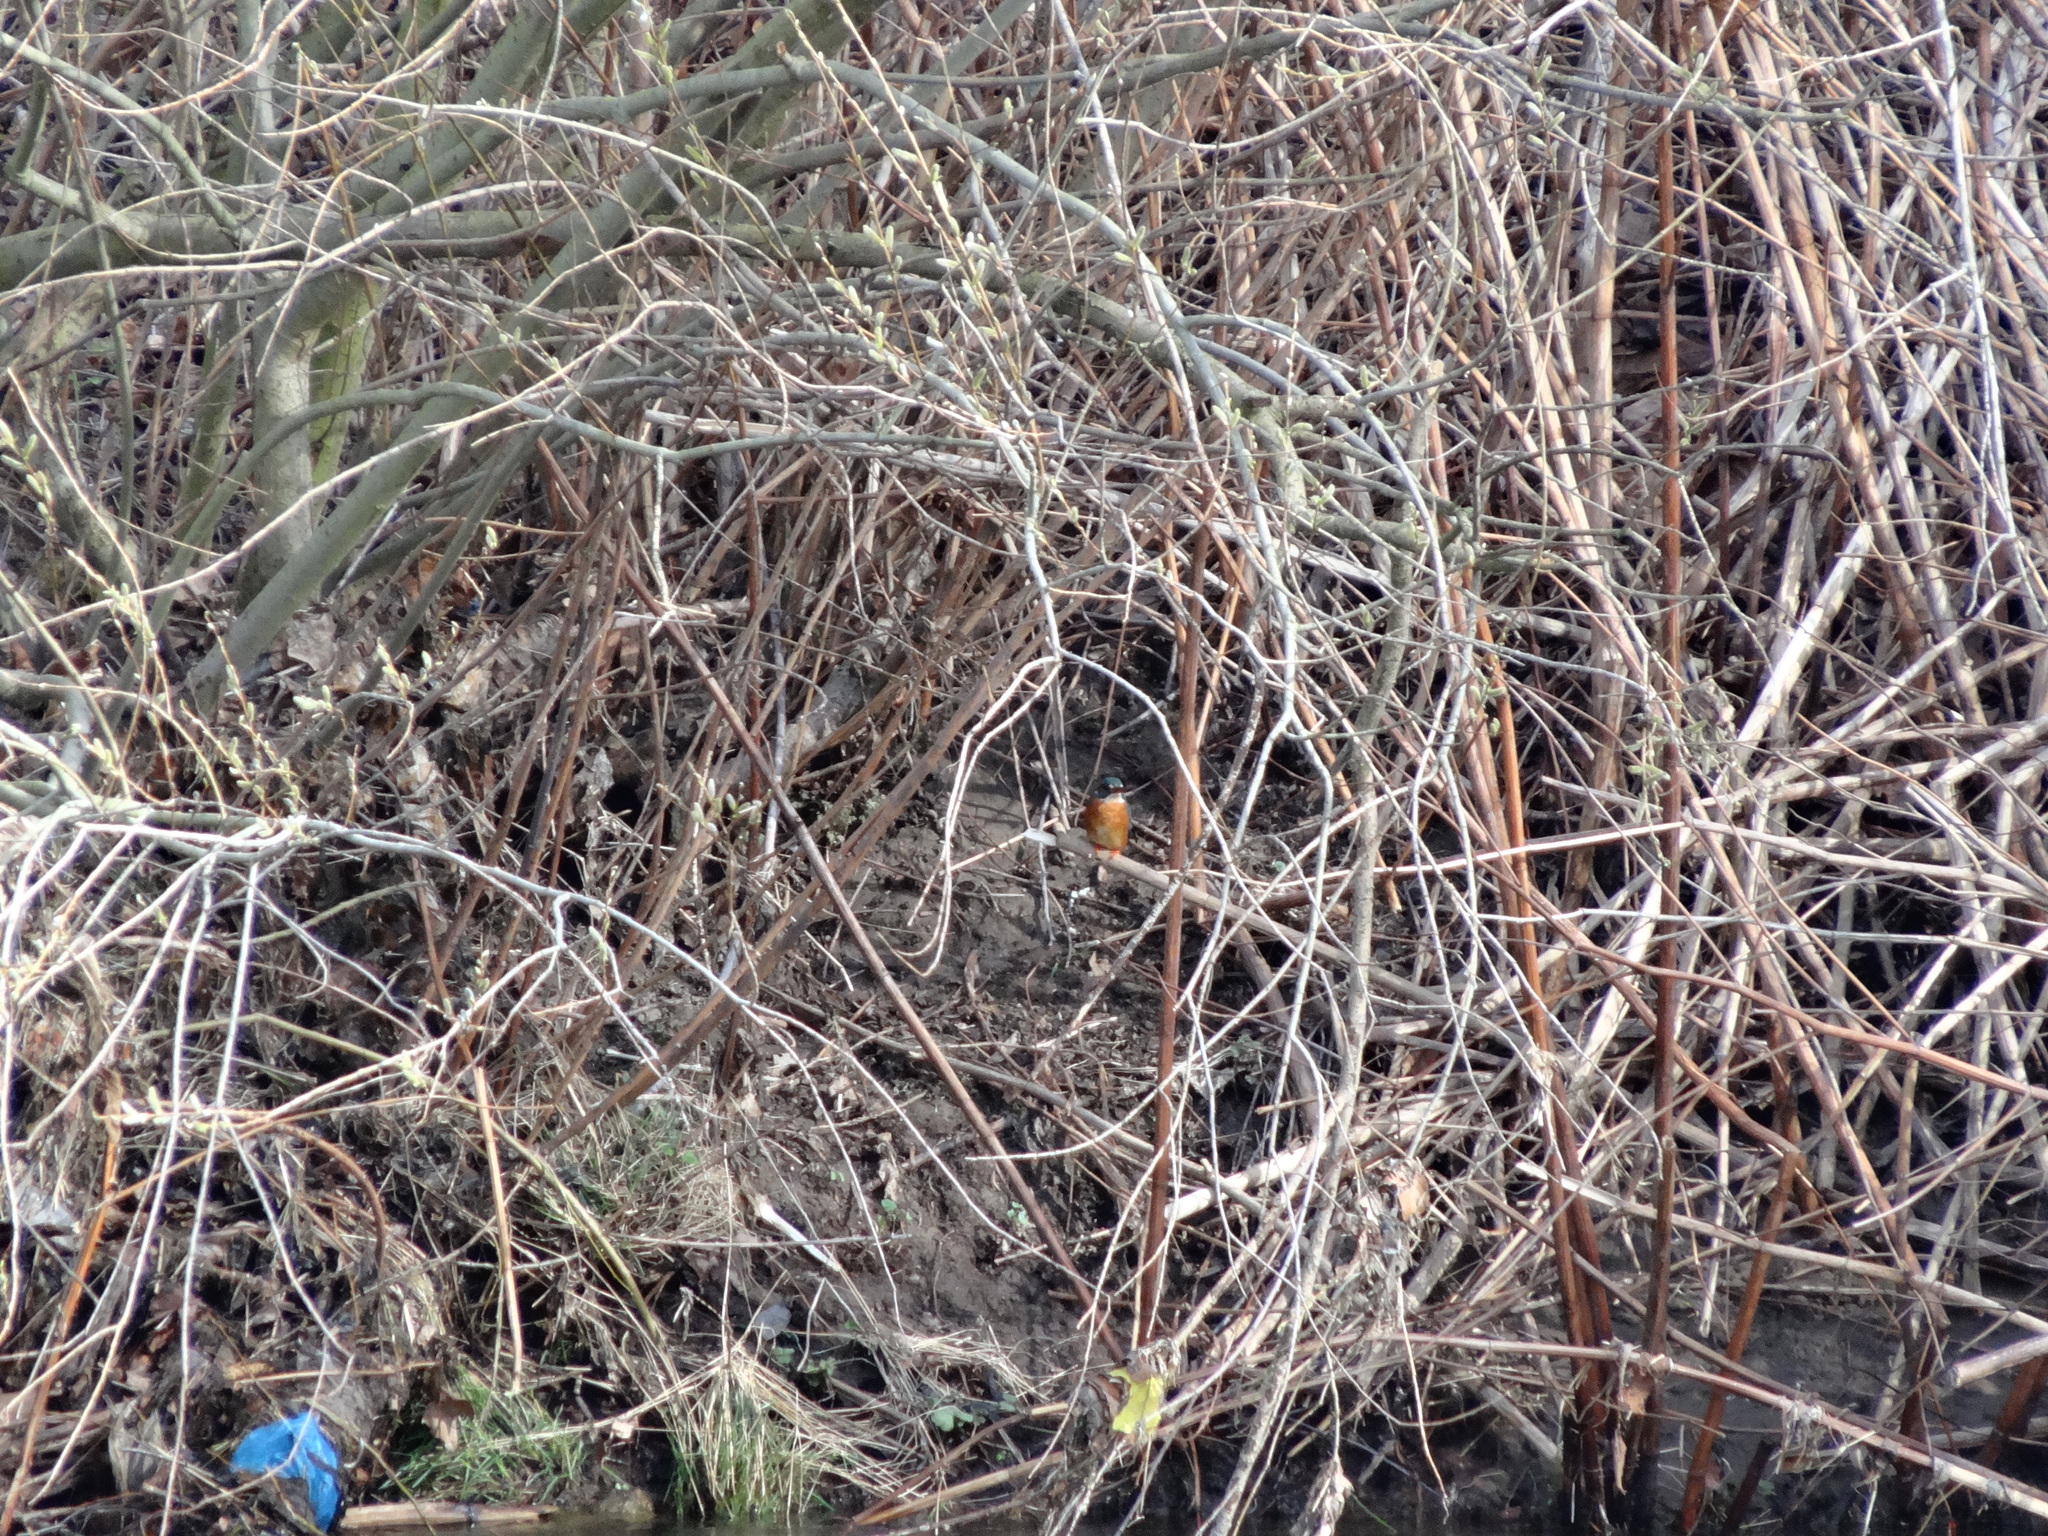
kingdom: Animalia
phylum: Chordata
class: Aves
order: Coraciiformes
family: Alcedinidae
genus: Alcedo
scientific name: Alcedo atthis
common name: Common kingfisher
